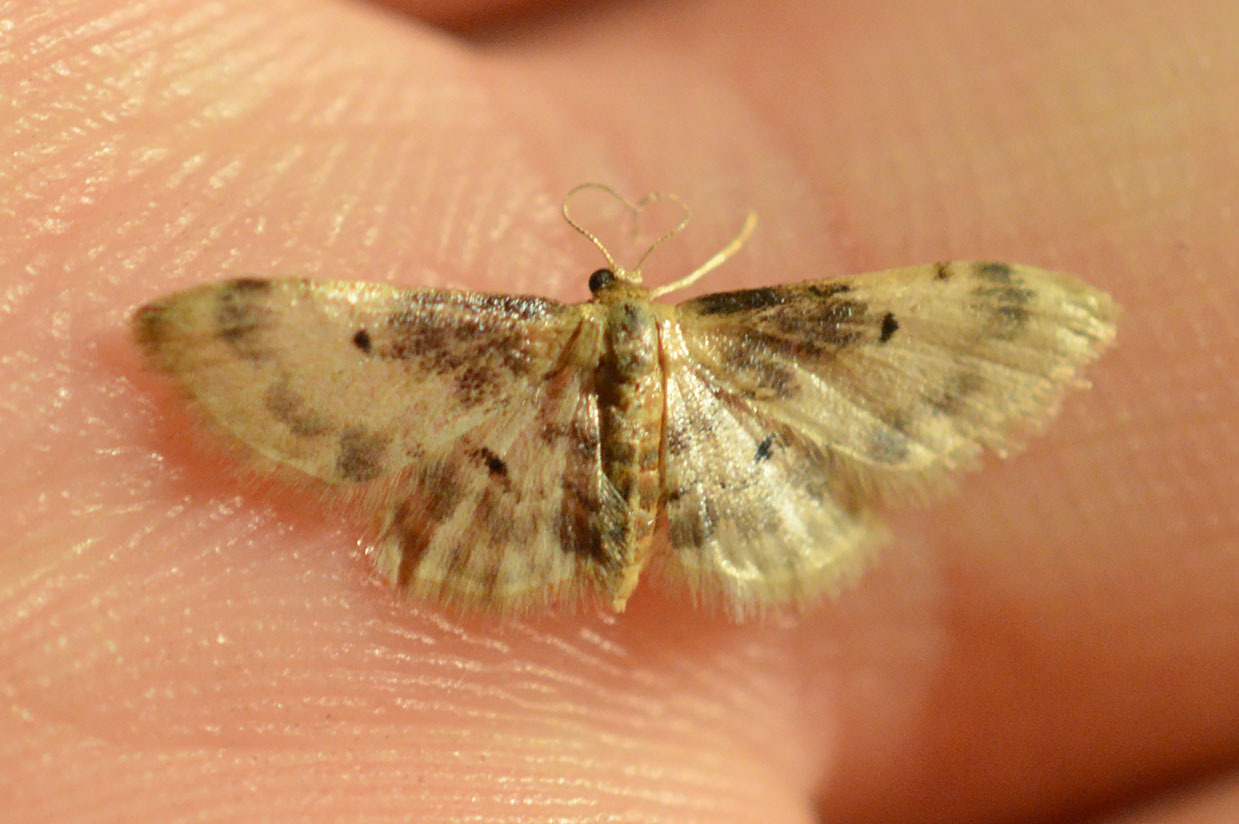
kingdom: Animalia
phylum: Arthropoda
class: Insecta
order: Lepidoptera
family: Geometridae
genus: Idaea
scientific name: Idaea filicata
